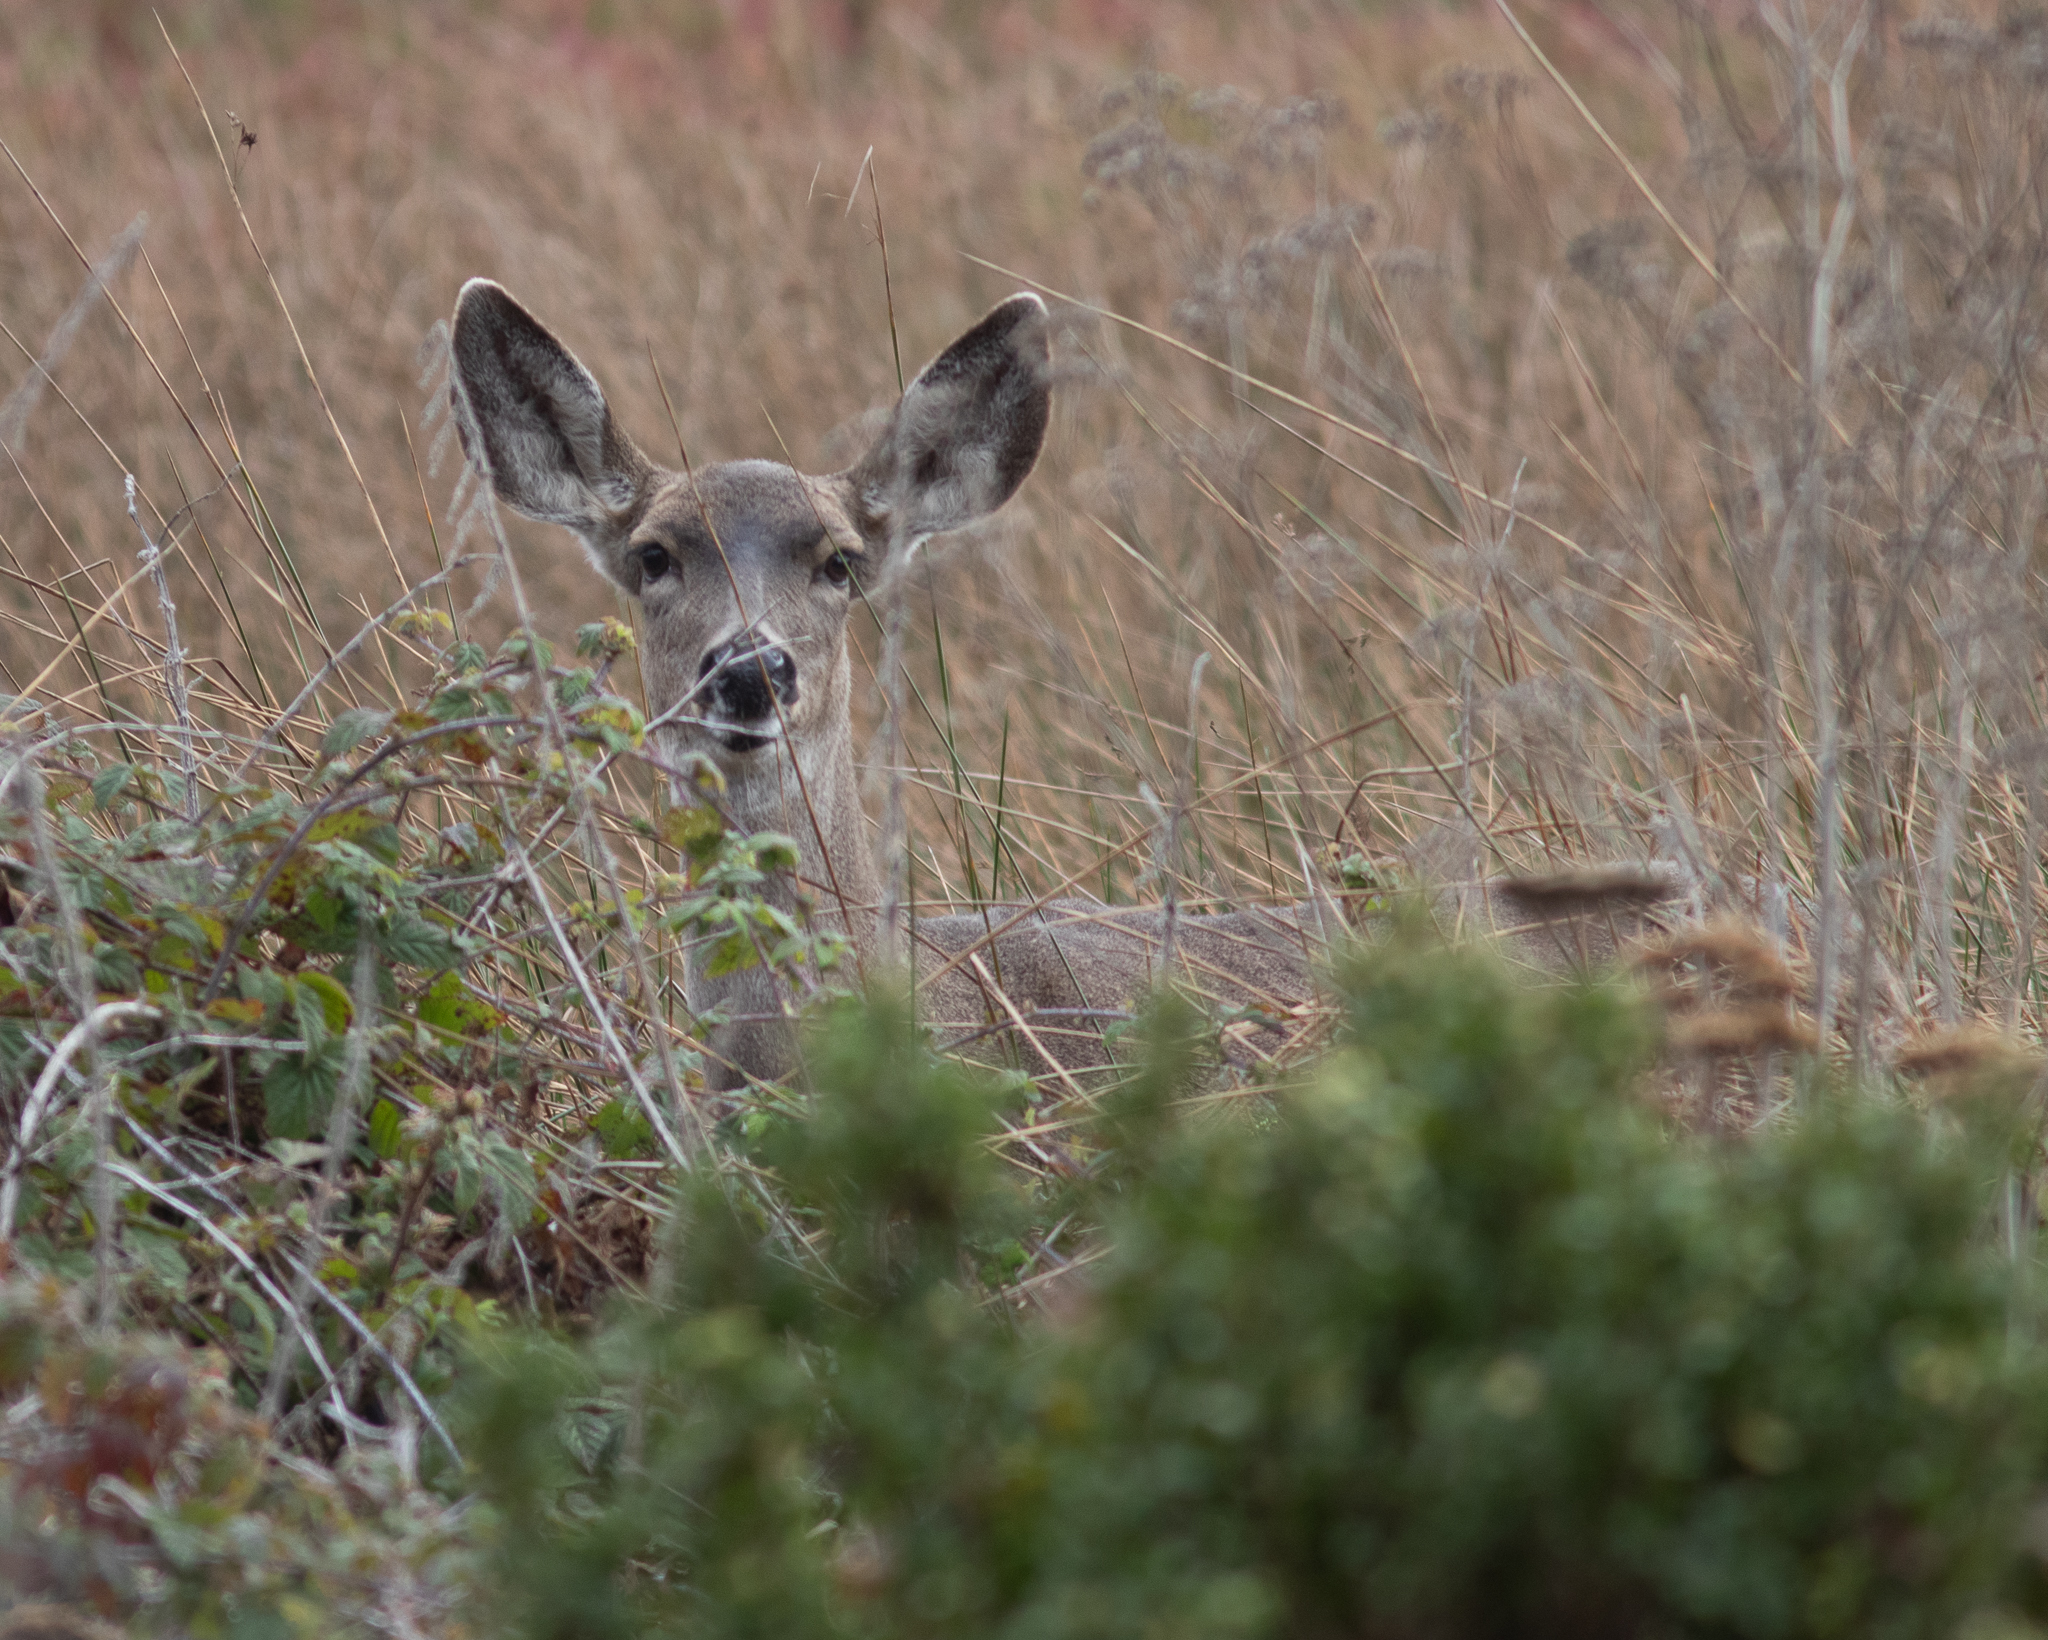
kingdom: Animalia
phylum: Chordata
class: Mammalia
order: Artiodactyla
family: Cervidae
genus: Odocoileus
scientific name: Odocoileus hemionus
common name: Mule deer
